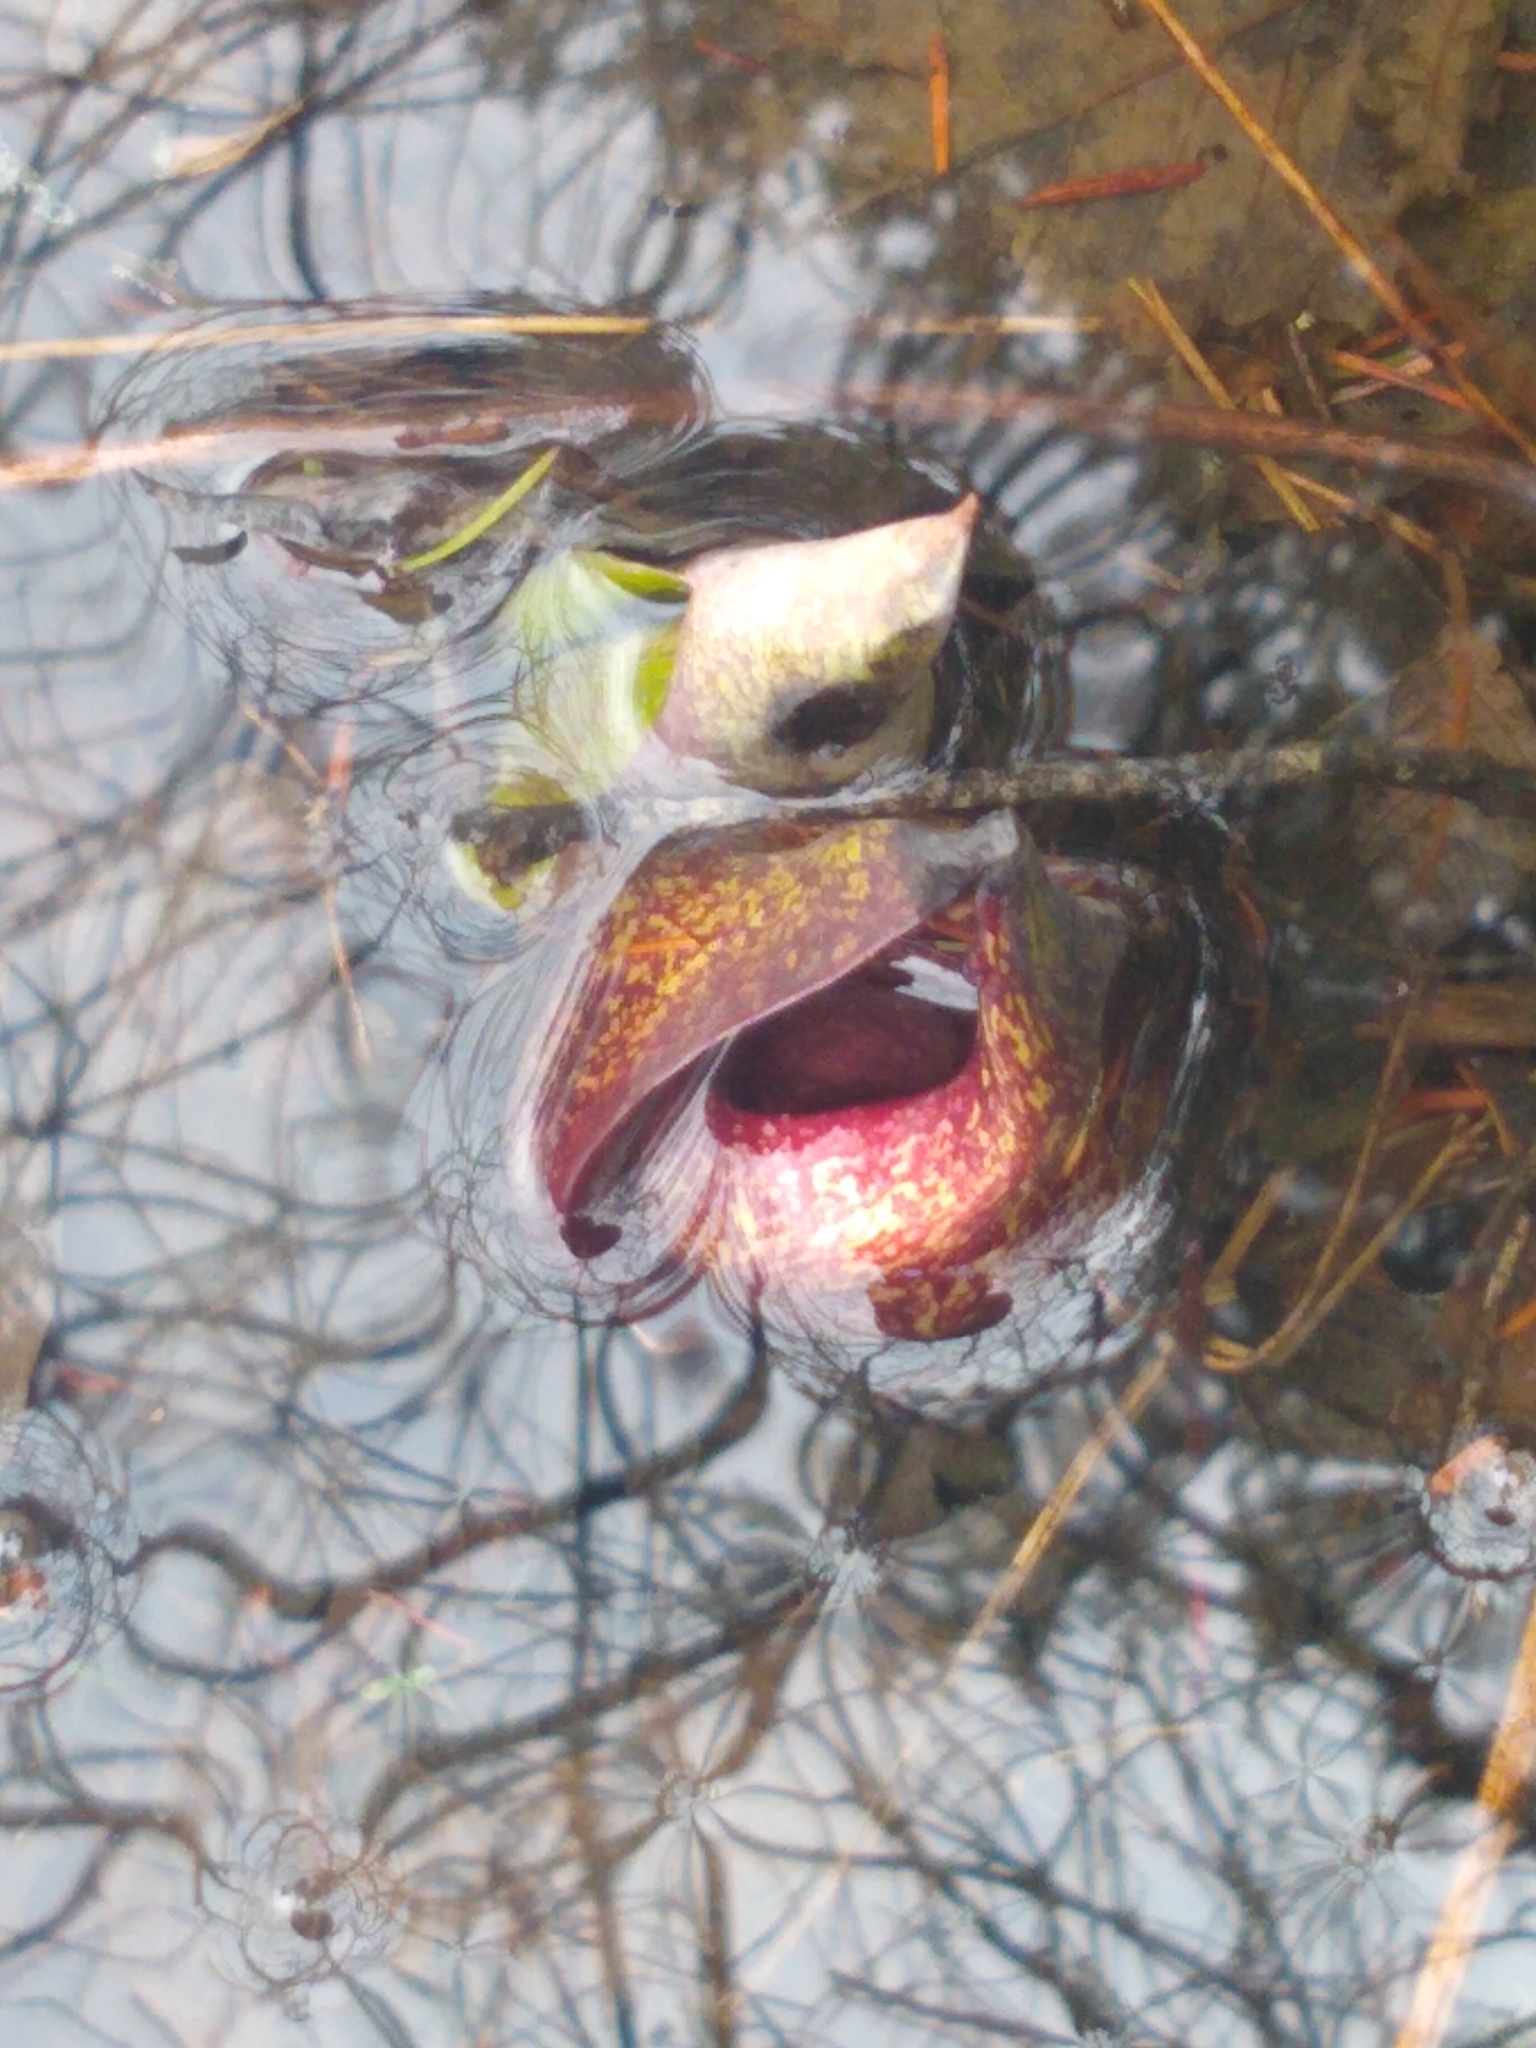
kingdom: Plantae
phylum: Tracheophyta
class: Liliopsida
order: Alismatales
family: Araceae
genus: Symplocarpus
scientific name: Symplocarpus foetidus
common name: Eastern skunk cabbage
